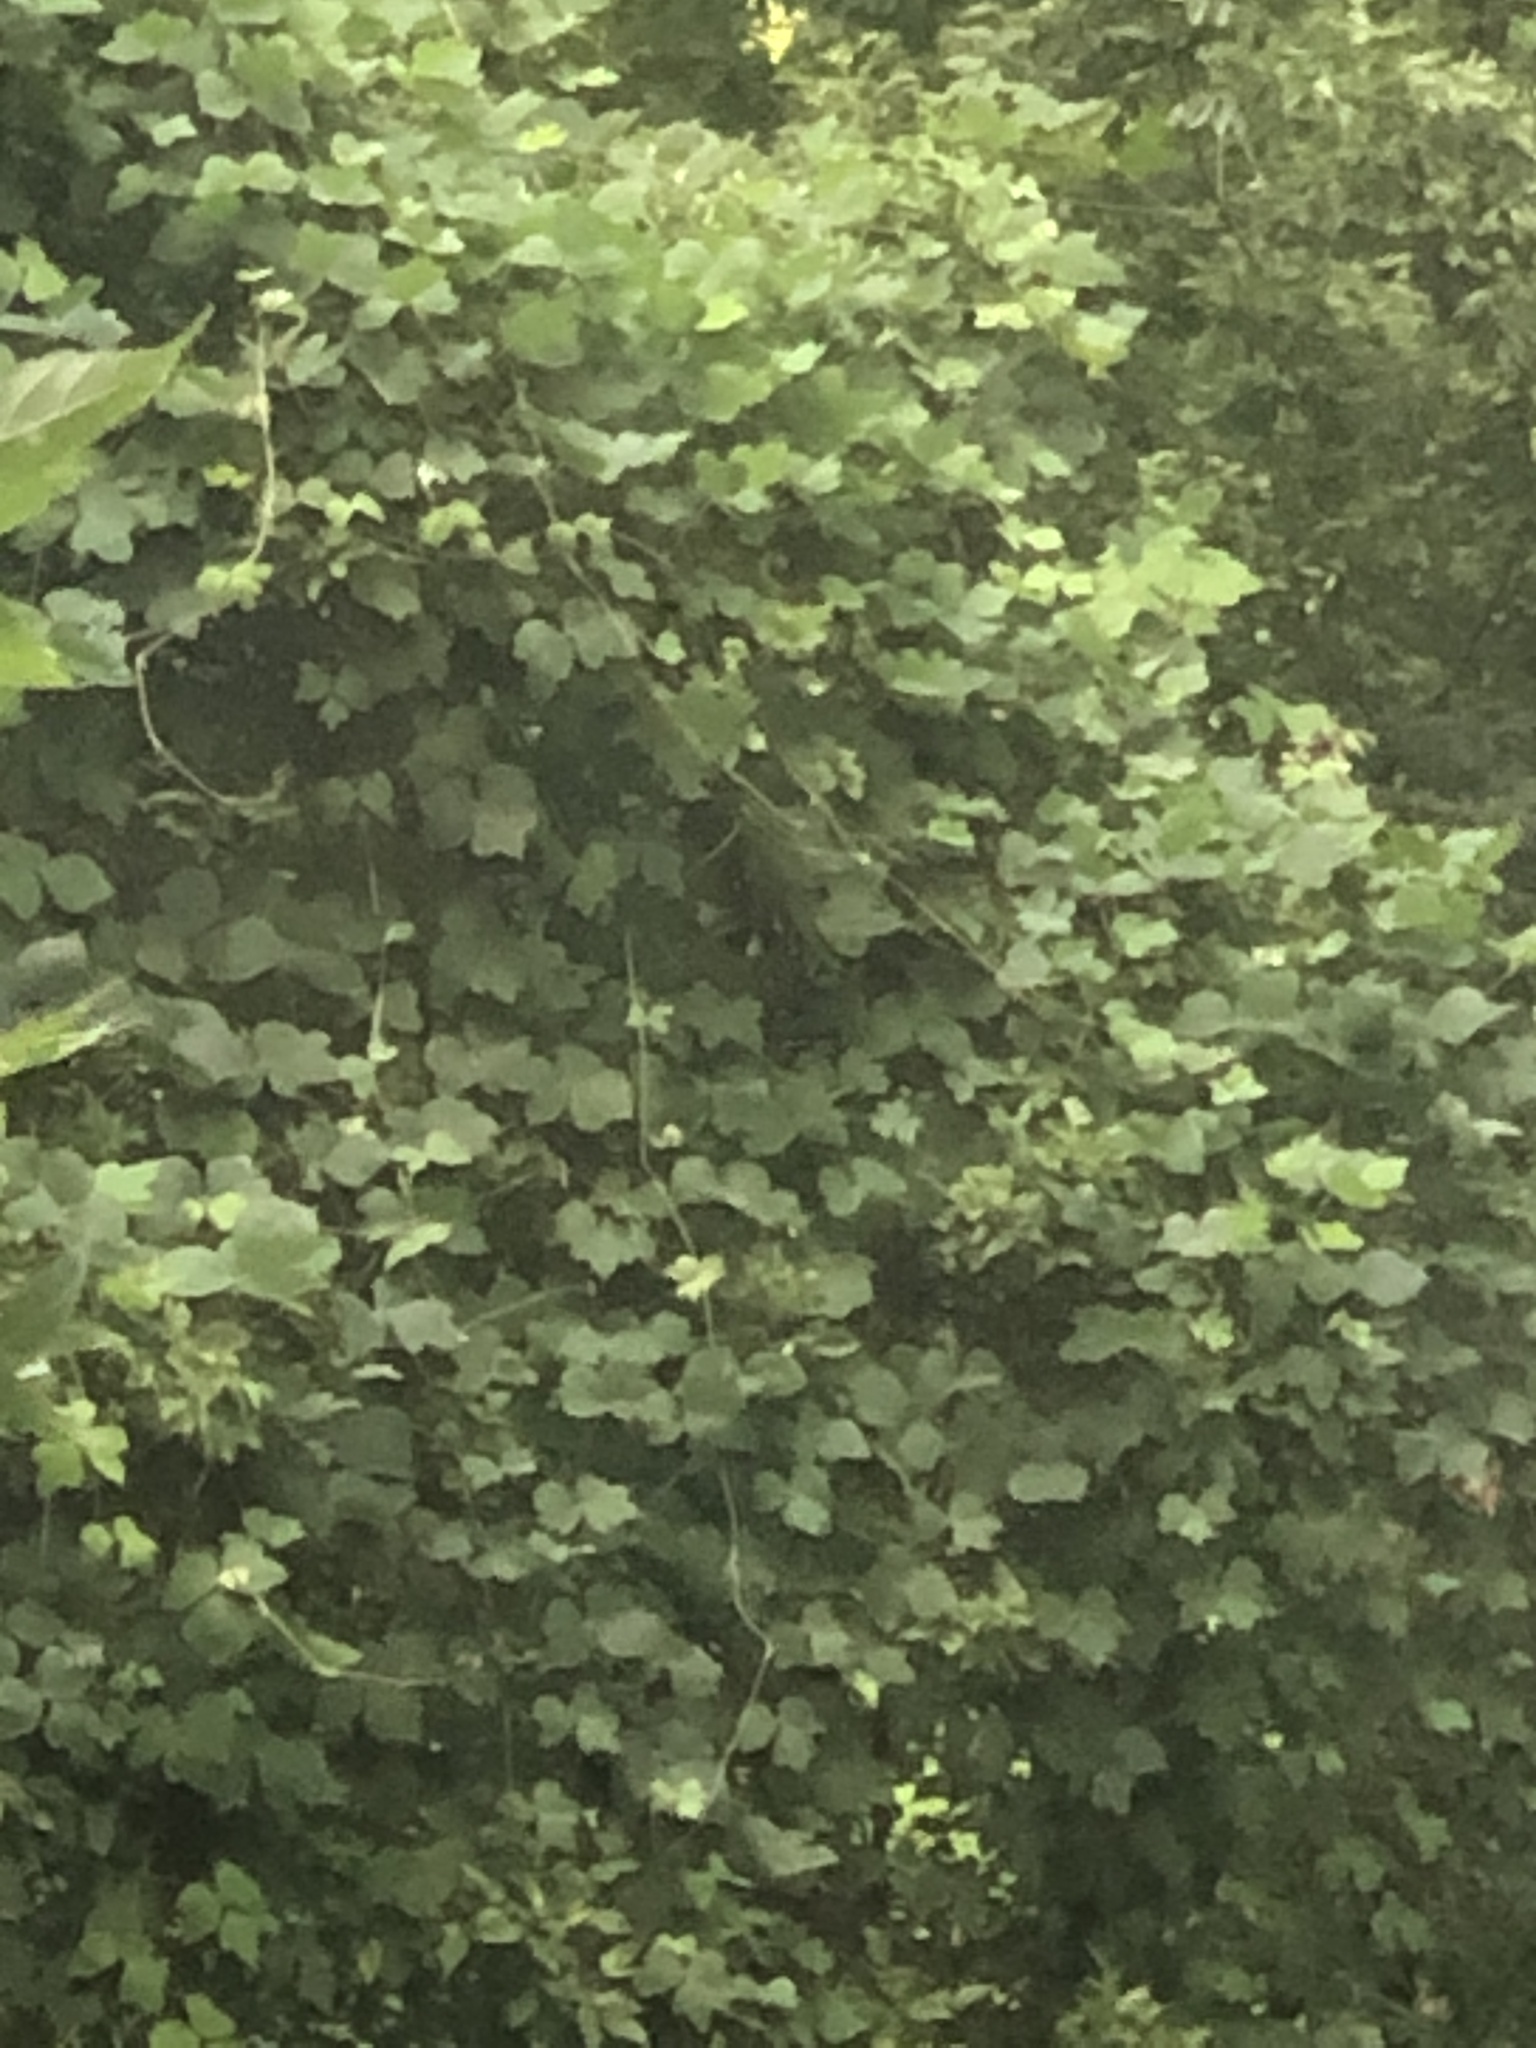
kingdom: Plantae
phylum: Tracheophyta
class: Magnoliopsida
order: Fabales
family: Fabaceae
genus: Pueraria
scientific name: Pueraria montana
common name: Kudzu
